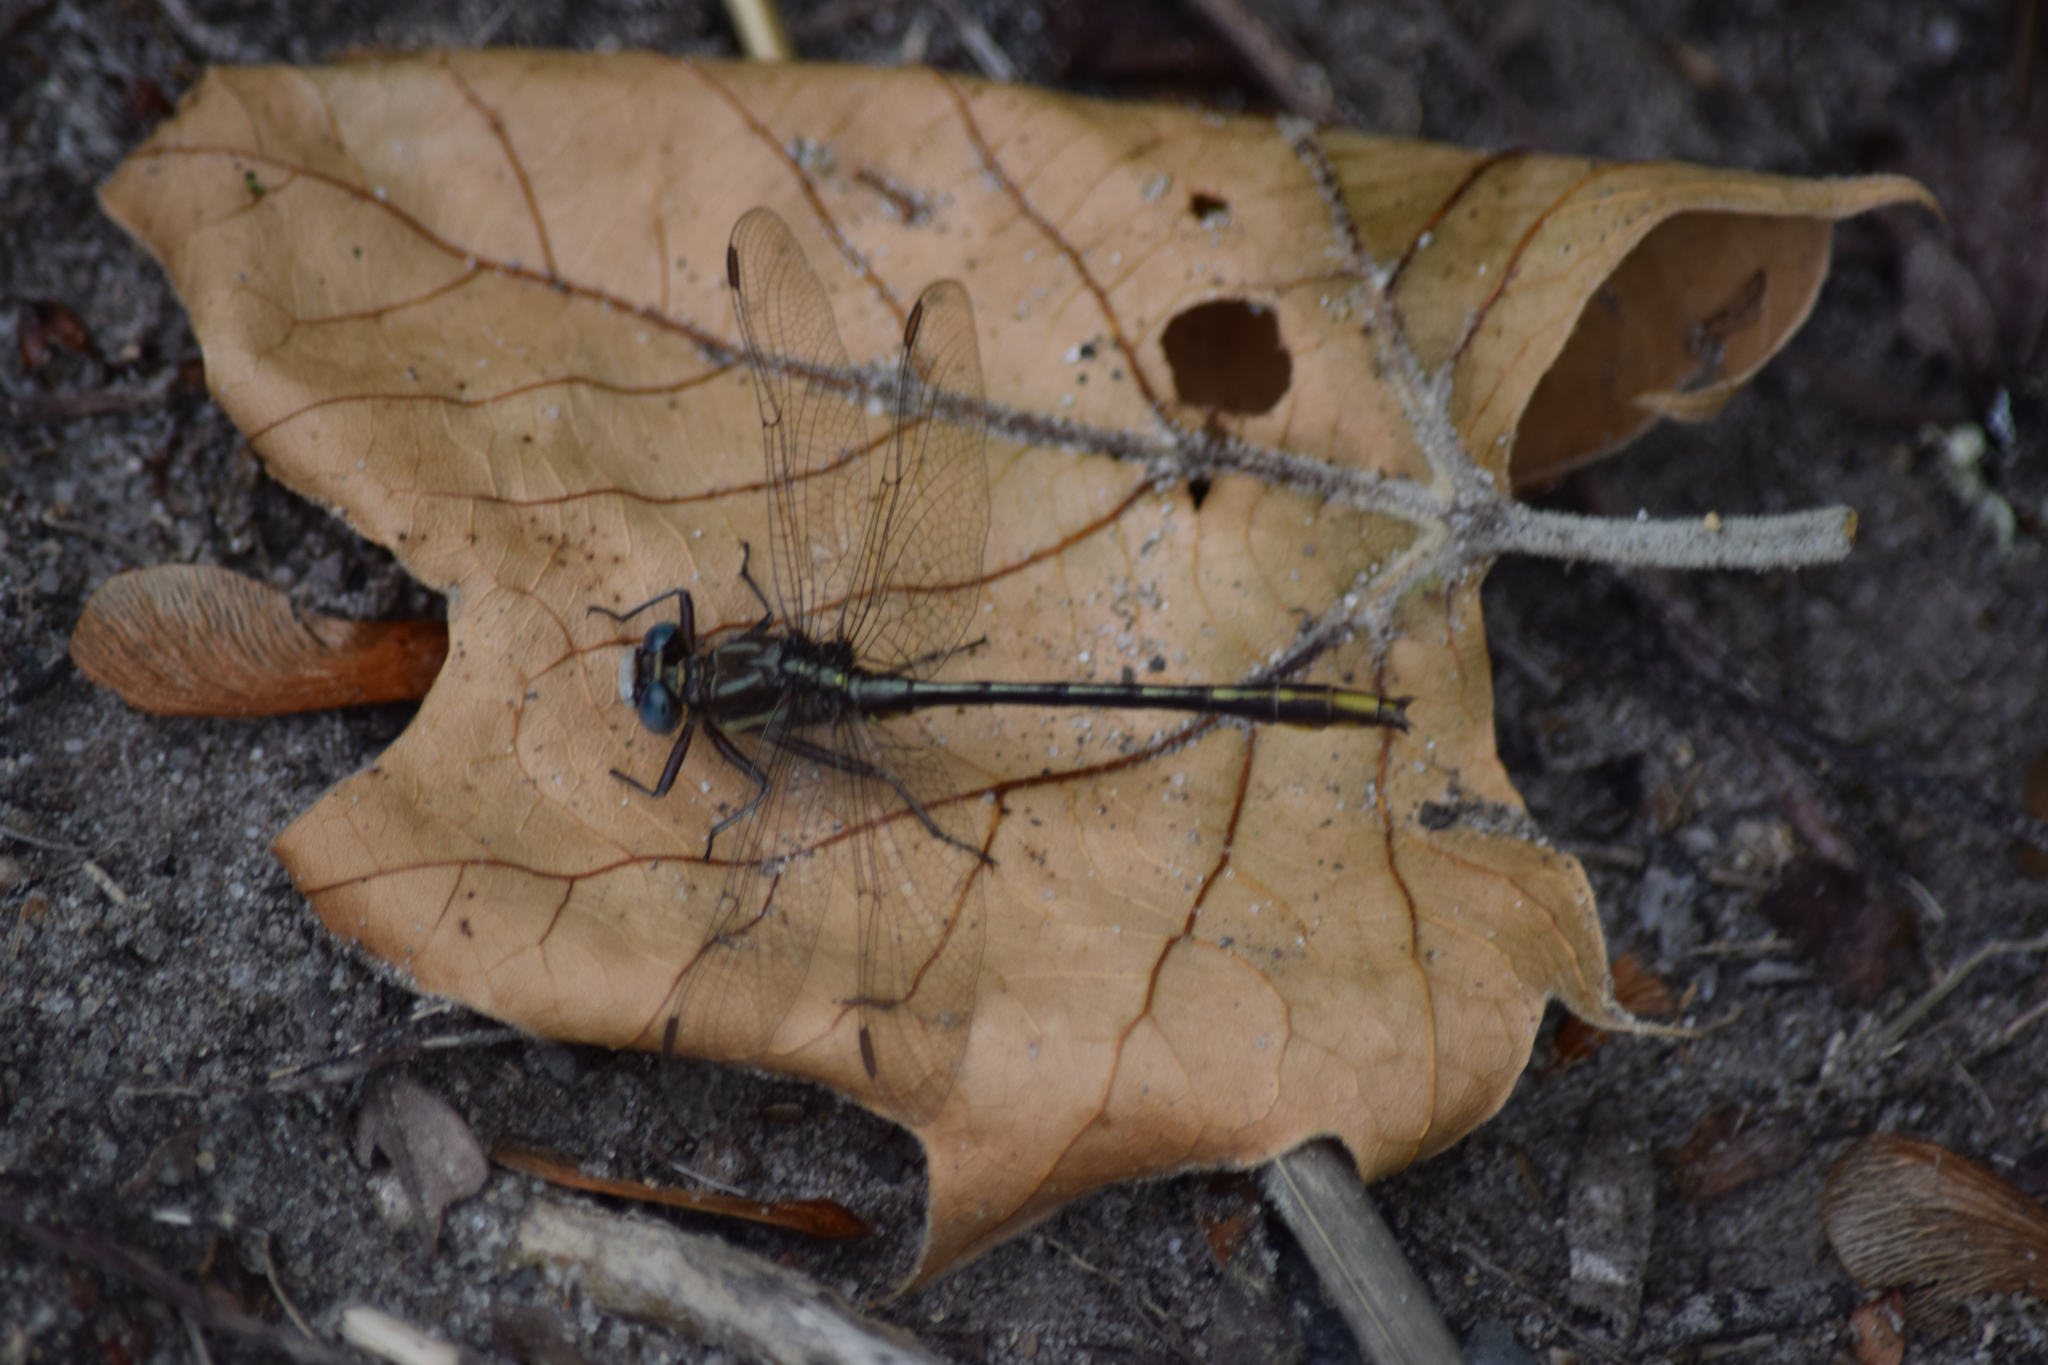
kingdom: Animalia
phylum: Arthropoda
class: Insecta
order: Odonata
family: Gomphidae
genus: Phanogomphus
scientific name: Phanogomphus exilis
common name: Lancet clubtail
